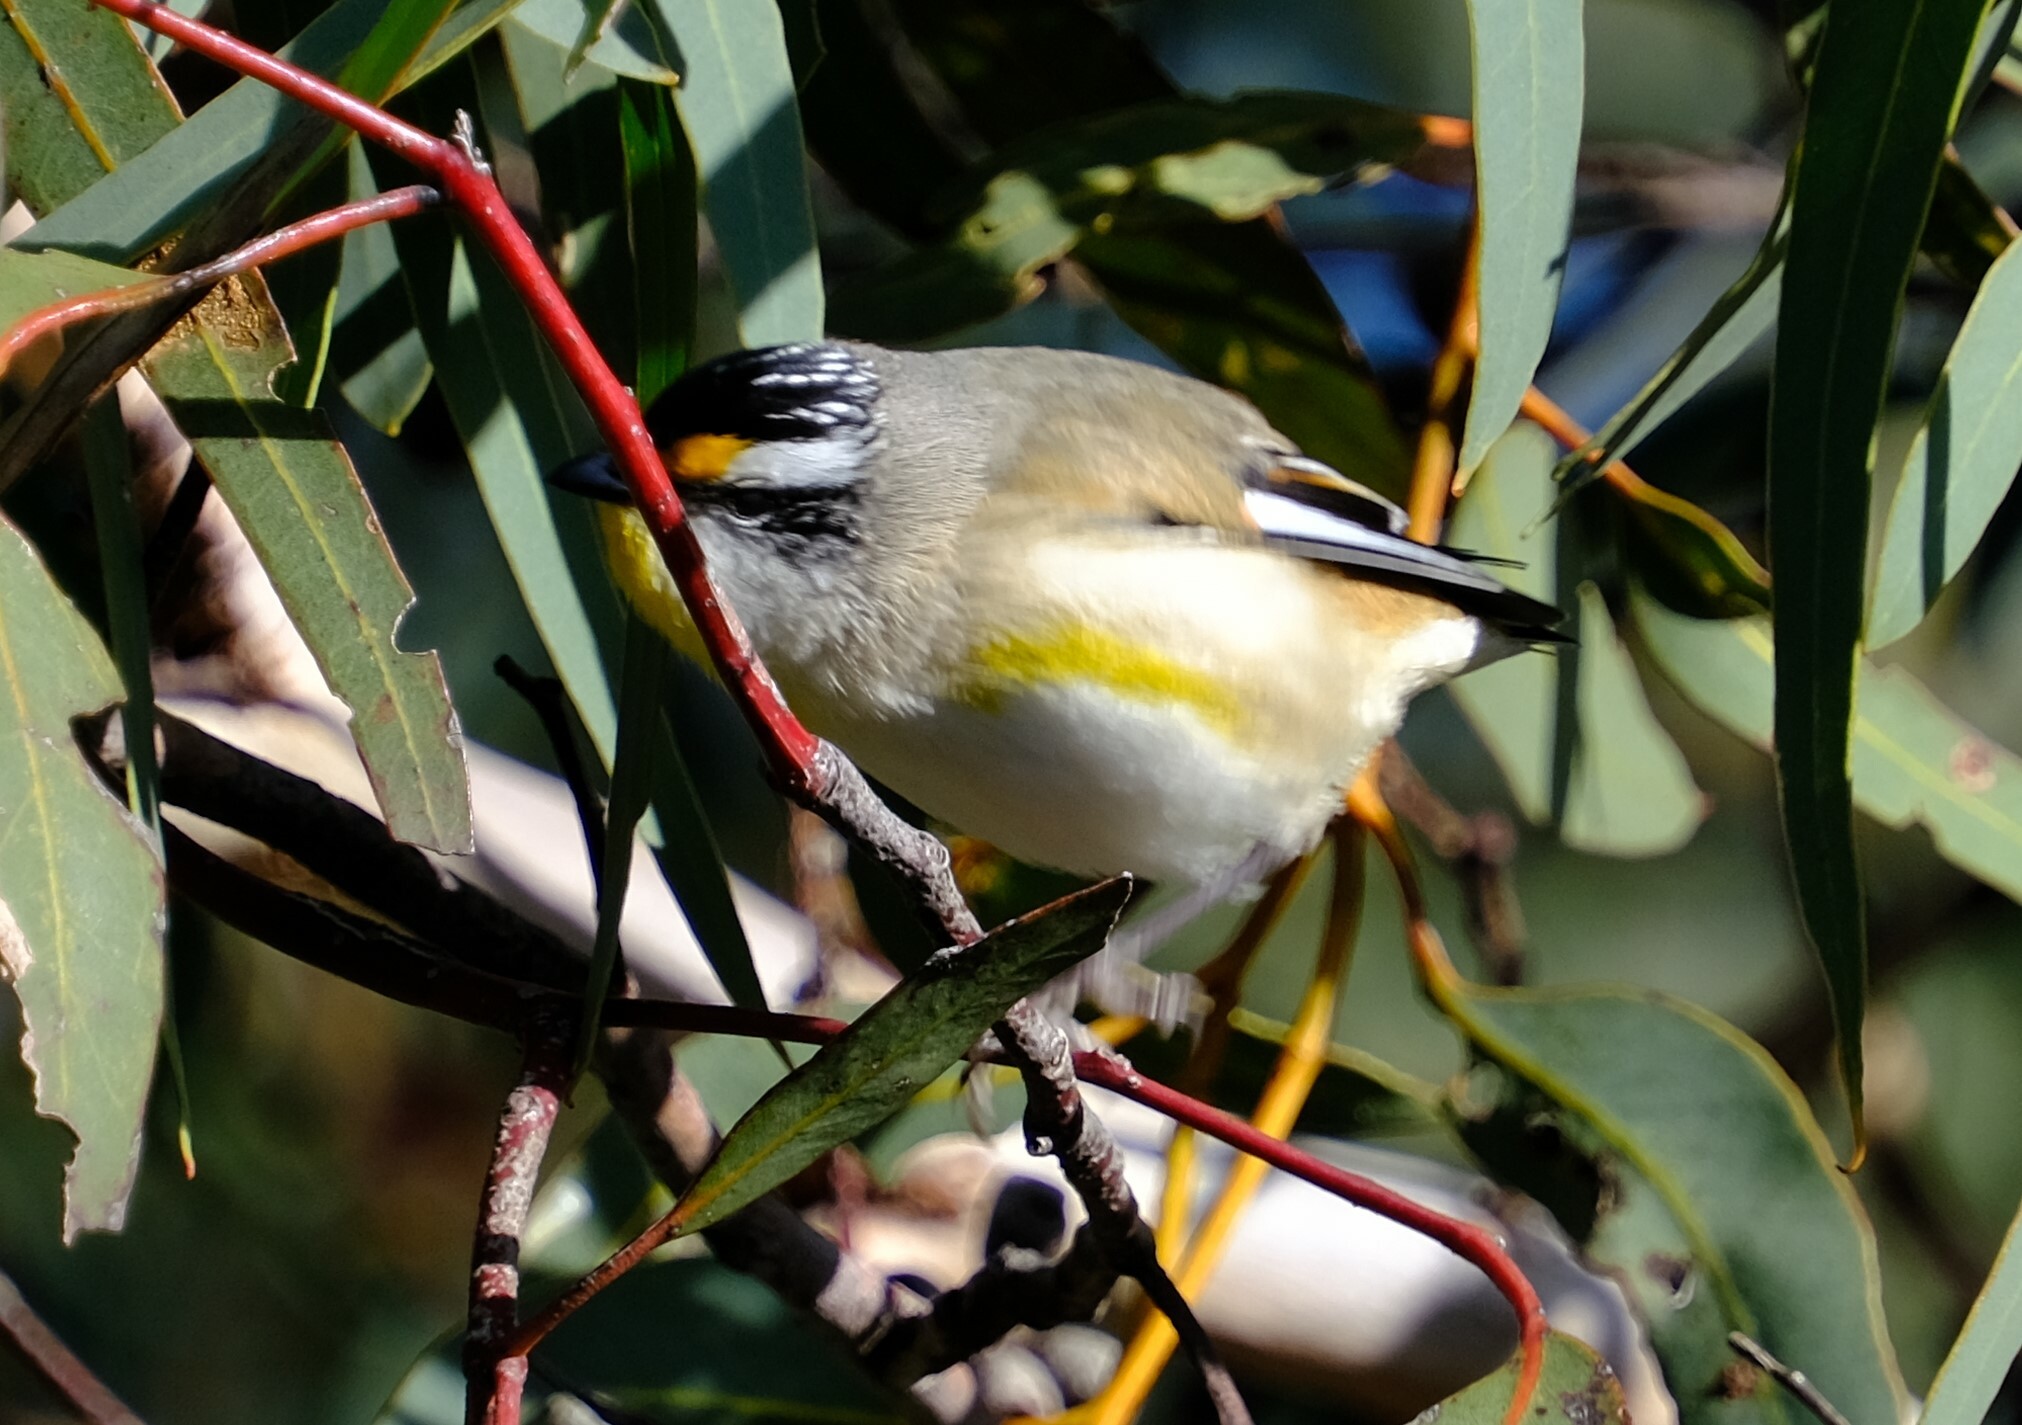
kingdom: Animalia
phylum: Chordata
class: Aves
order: Passeriformes
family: Pardalotidae
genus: Pardalotus
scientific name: Pardalotus striatus
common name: Striated pardalote
